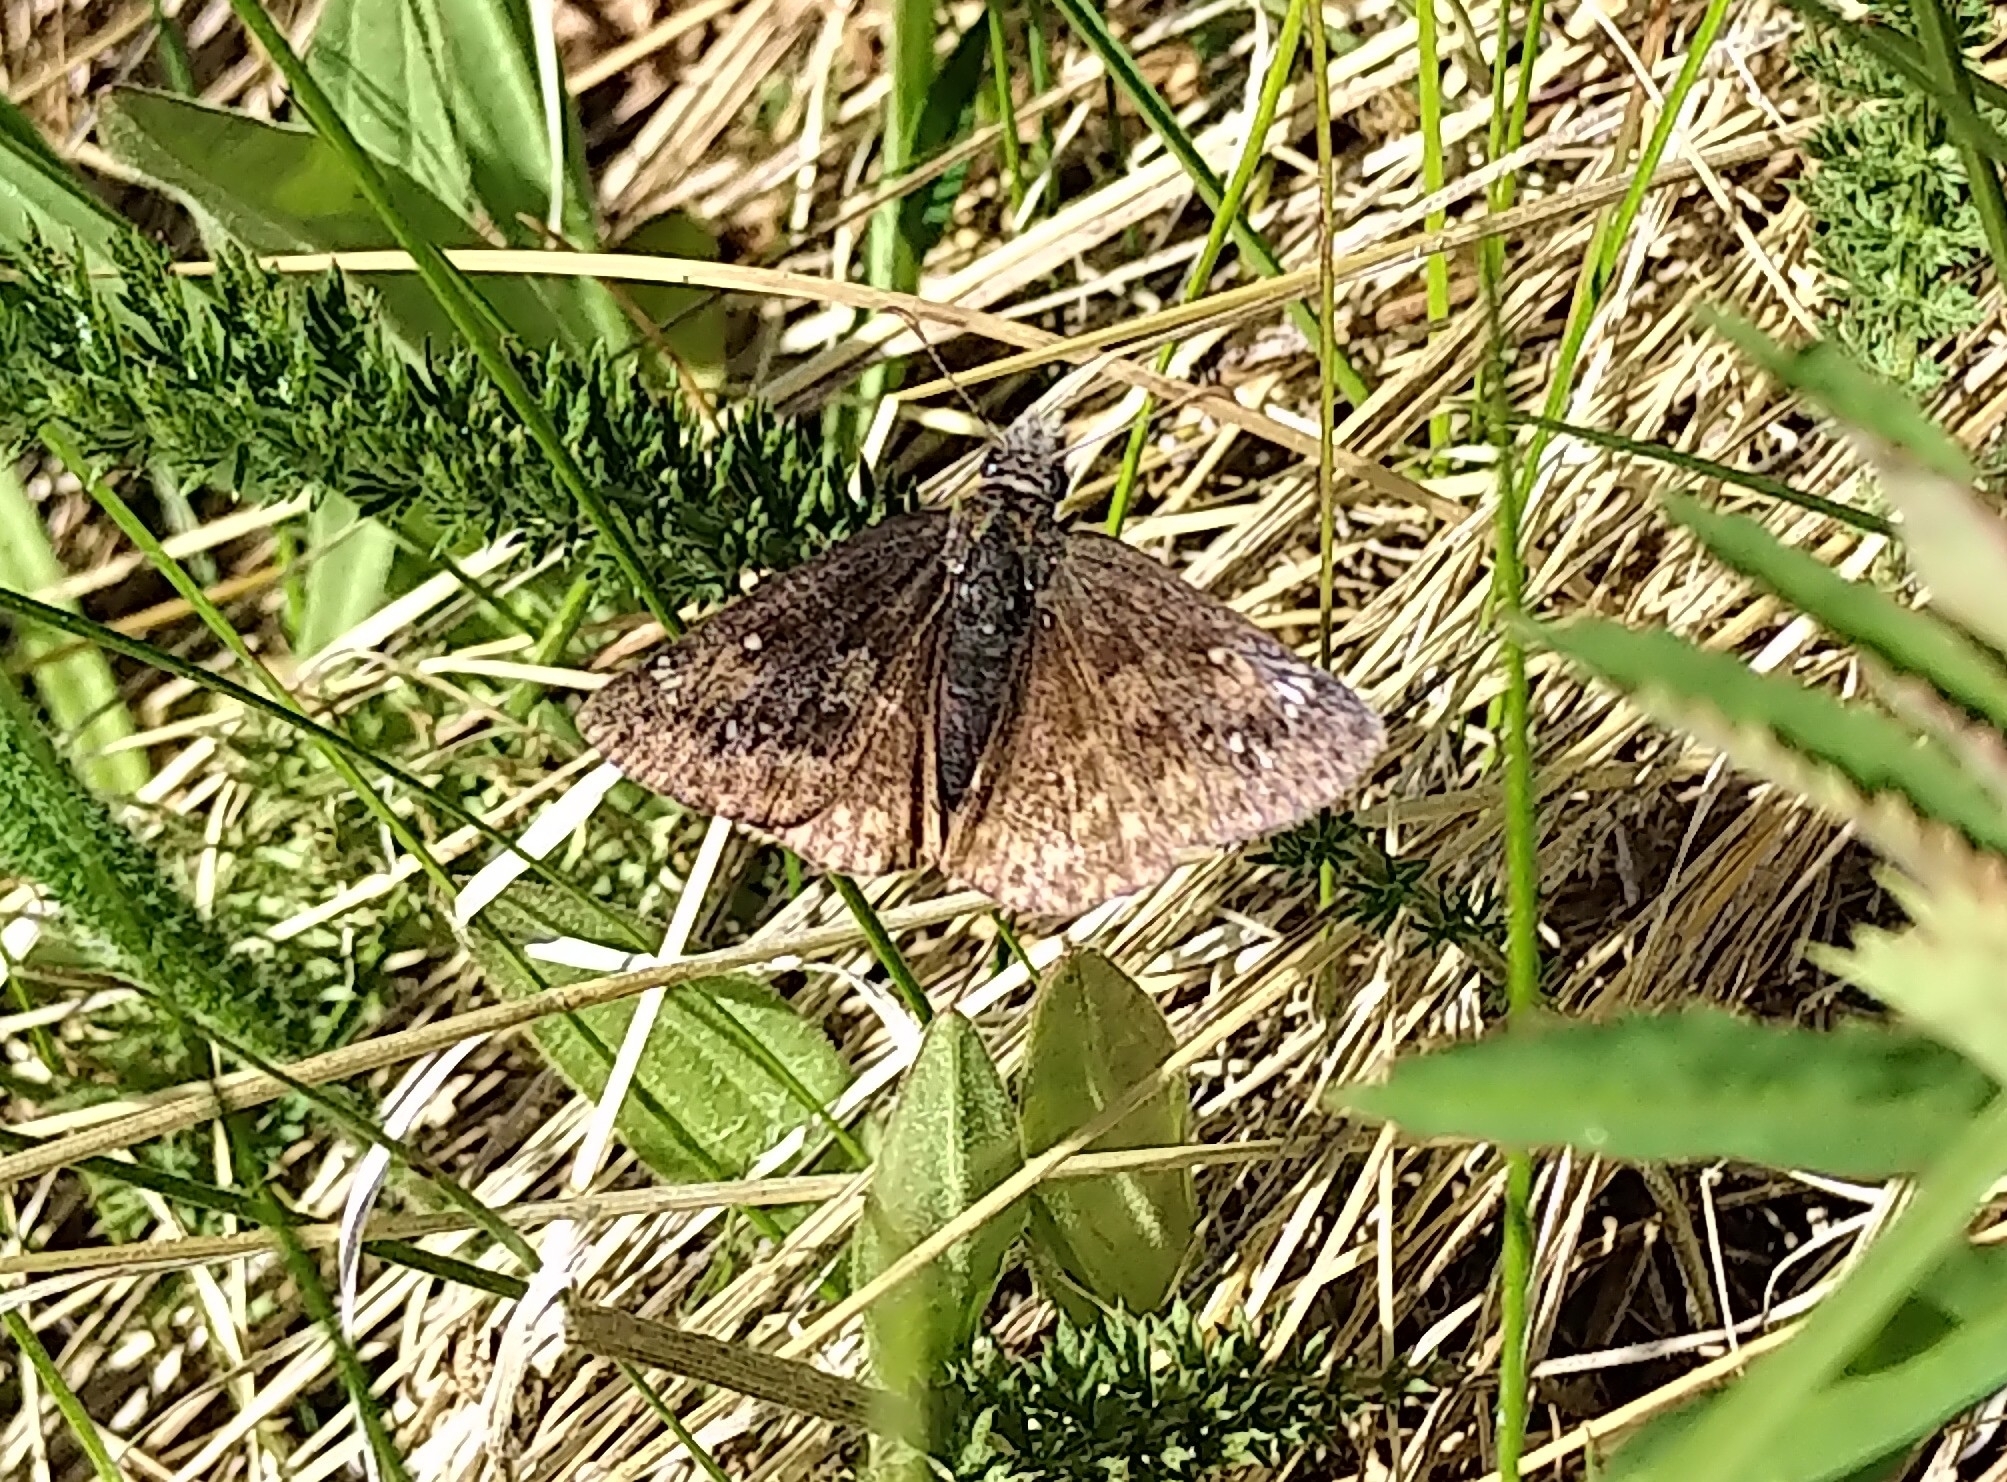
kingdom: Animalia
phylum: Arthropoda
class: Insecta
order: Lepidoptera
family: Hesperiidae
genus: Erynnis
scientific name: Erynnis persius
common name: Persius duskywing
